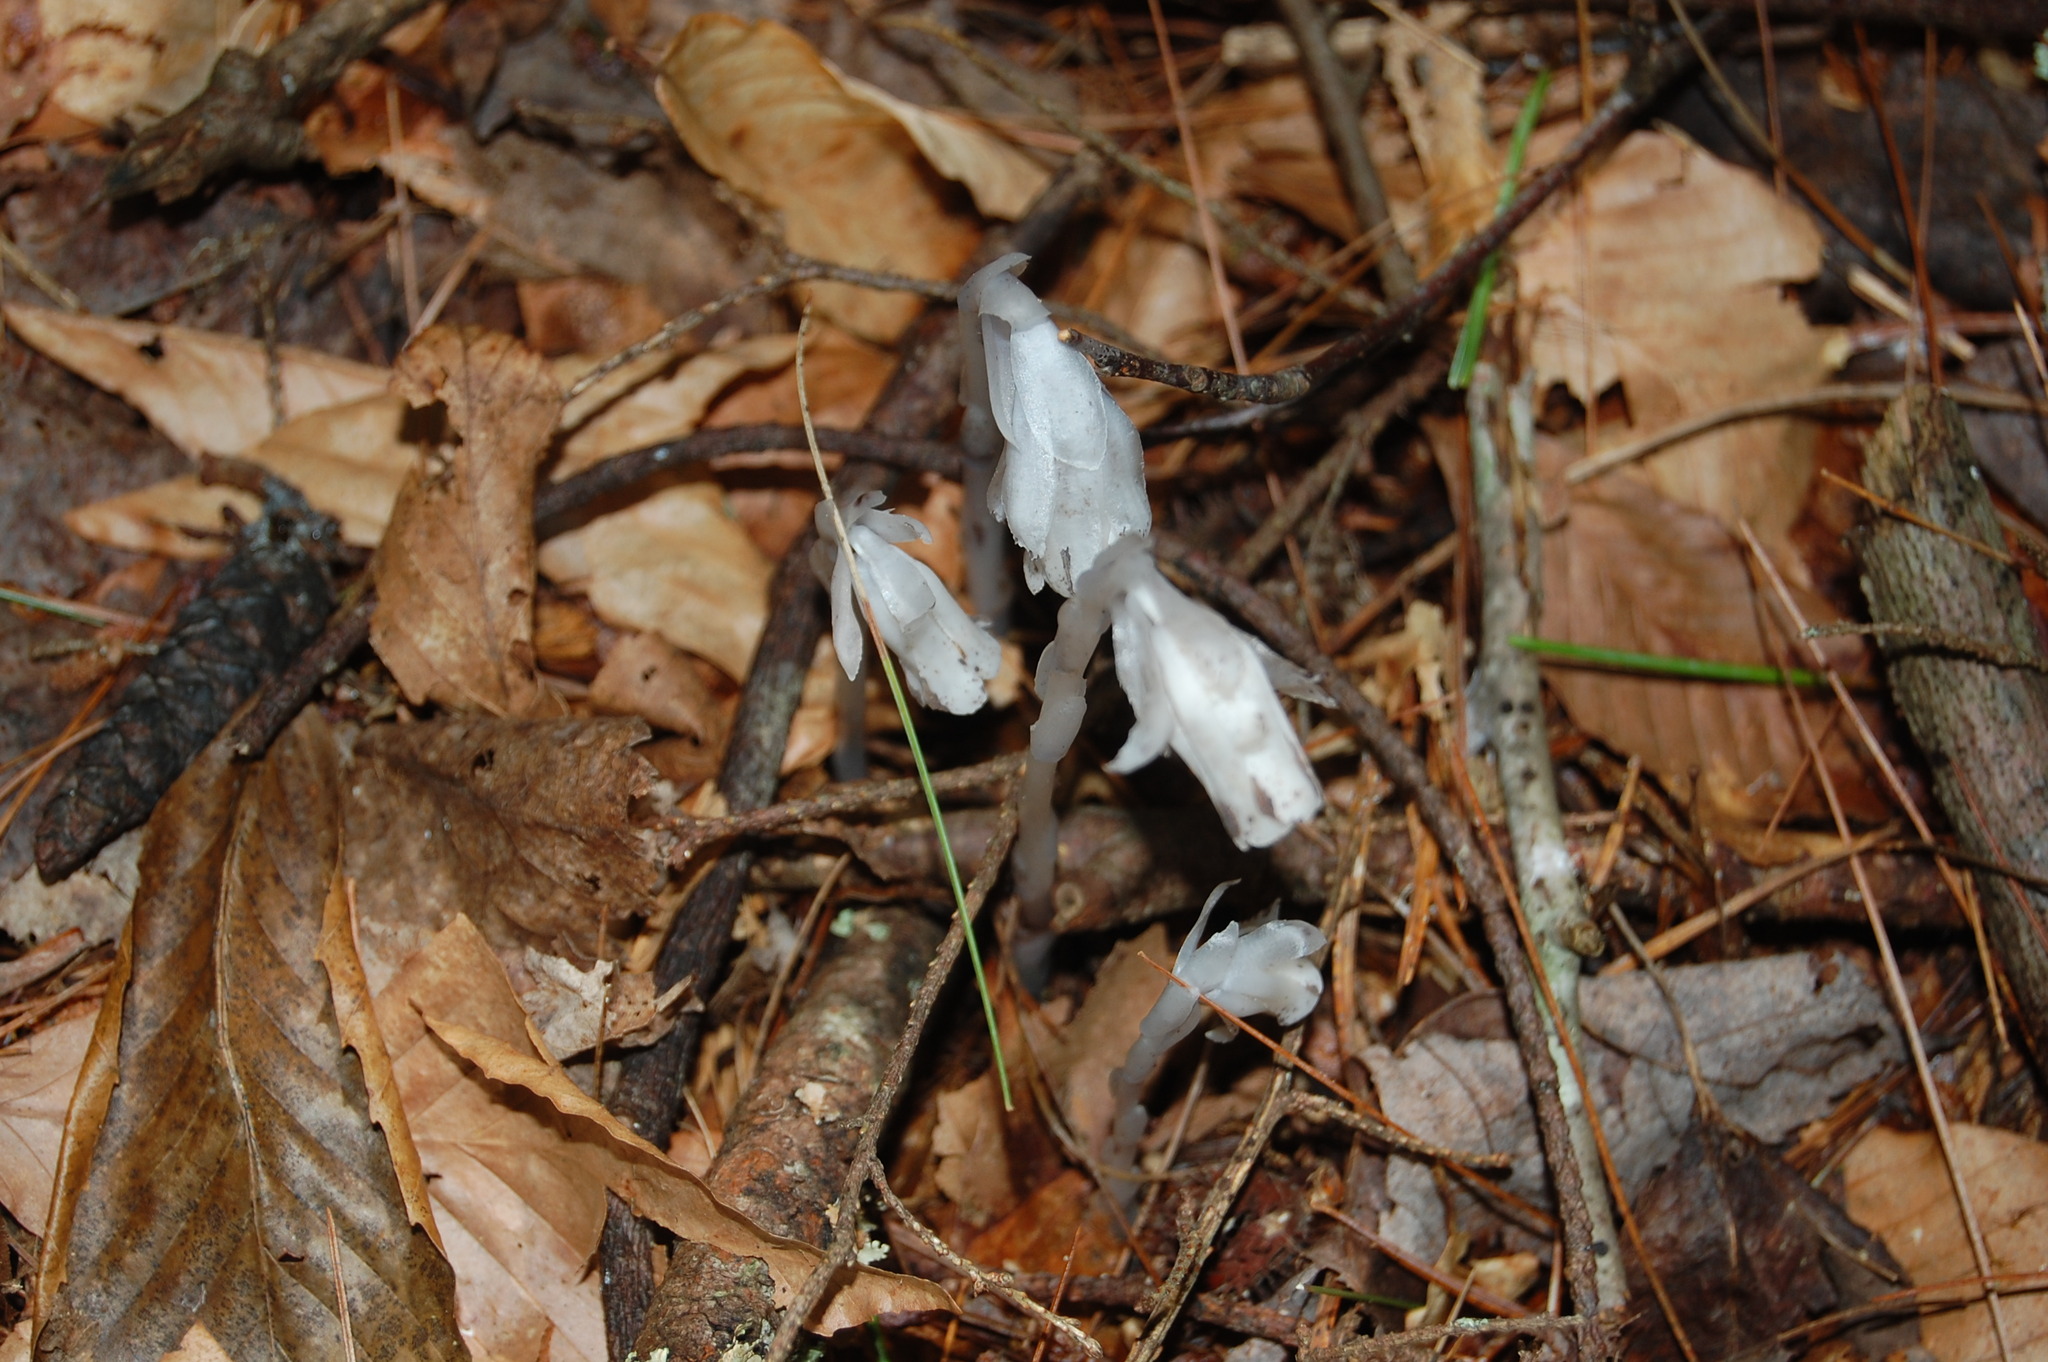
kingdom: Plantae
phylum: Tracheophyta
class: Magnoliopsida
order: Ericales
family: Ericaceae
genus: Monotropa
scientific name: Monotropa uniflora
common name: Convulsion root
